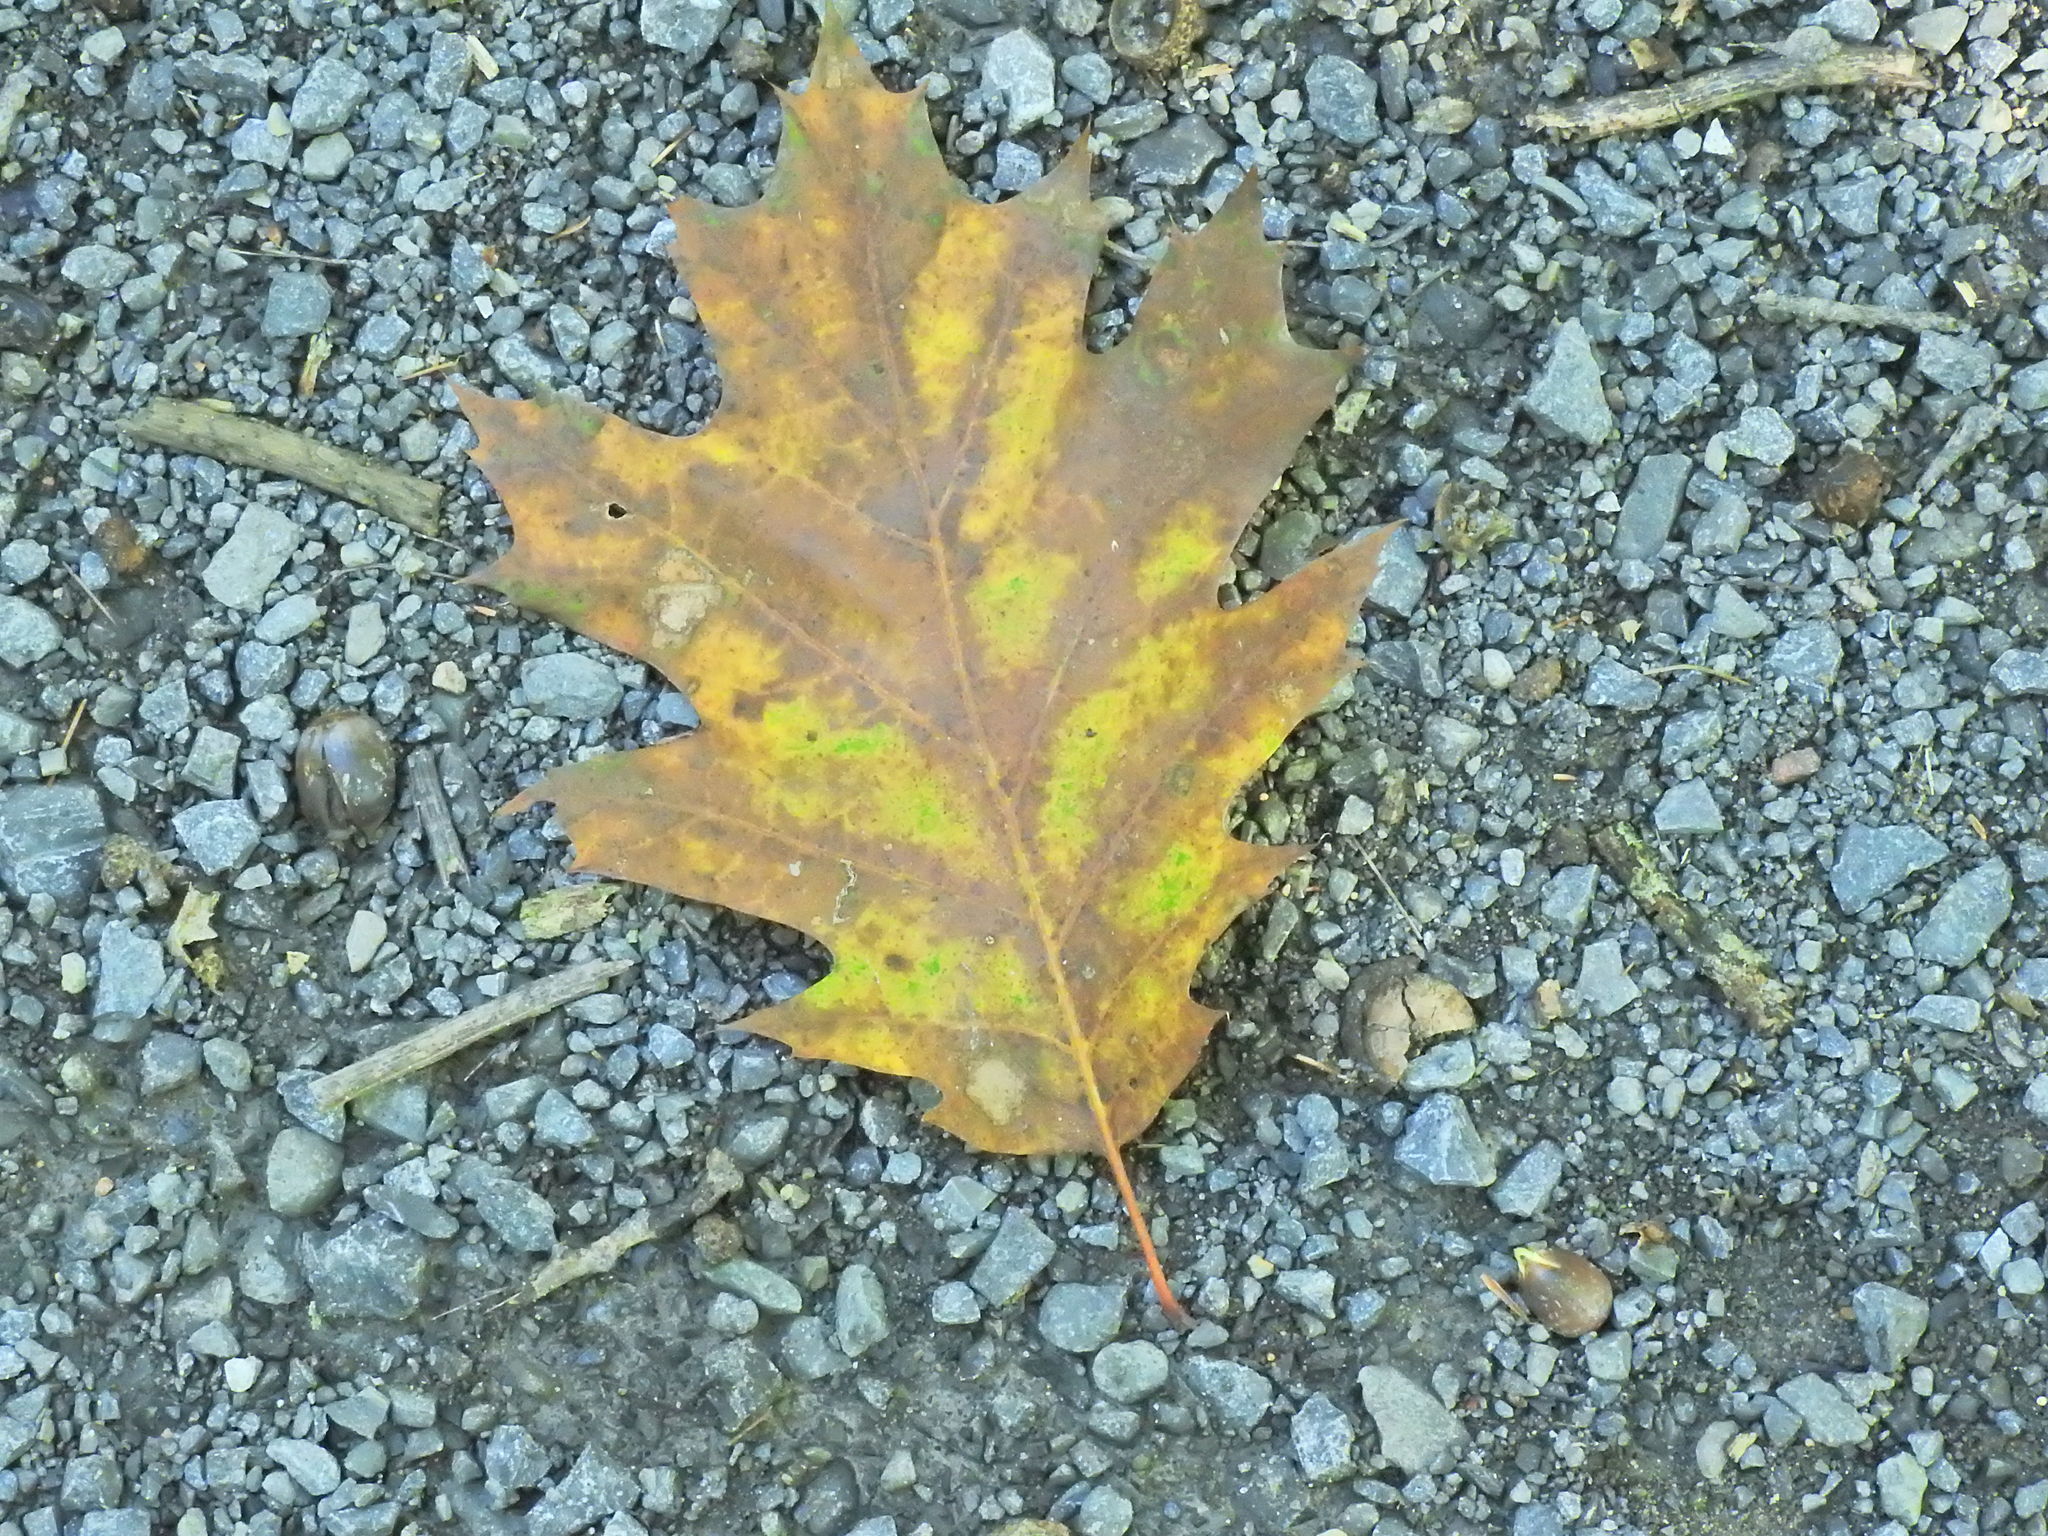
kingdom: Plantae
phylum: Tracheophyta
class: Magnoliopsida
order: Fagales
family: Fagaceae
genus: Quercus
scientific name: Quercus rubra
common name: Red oak
